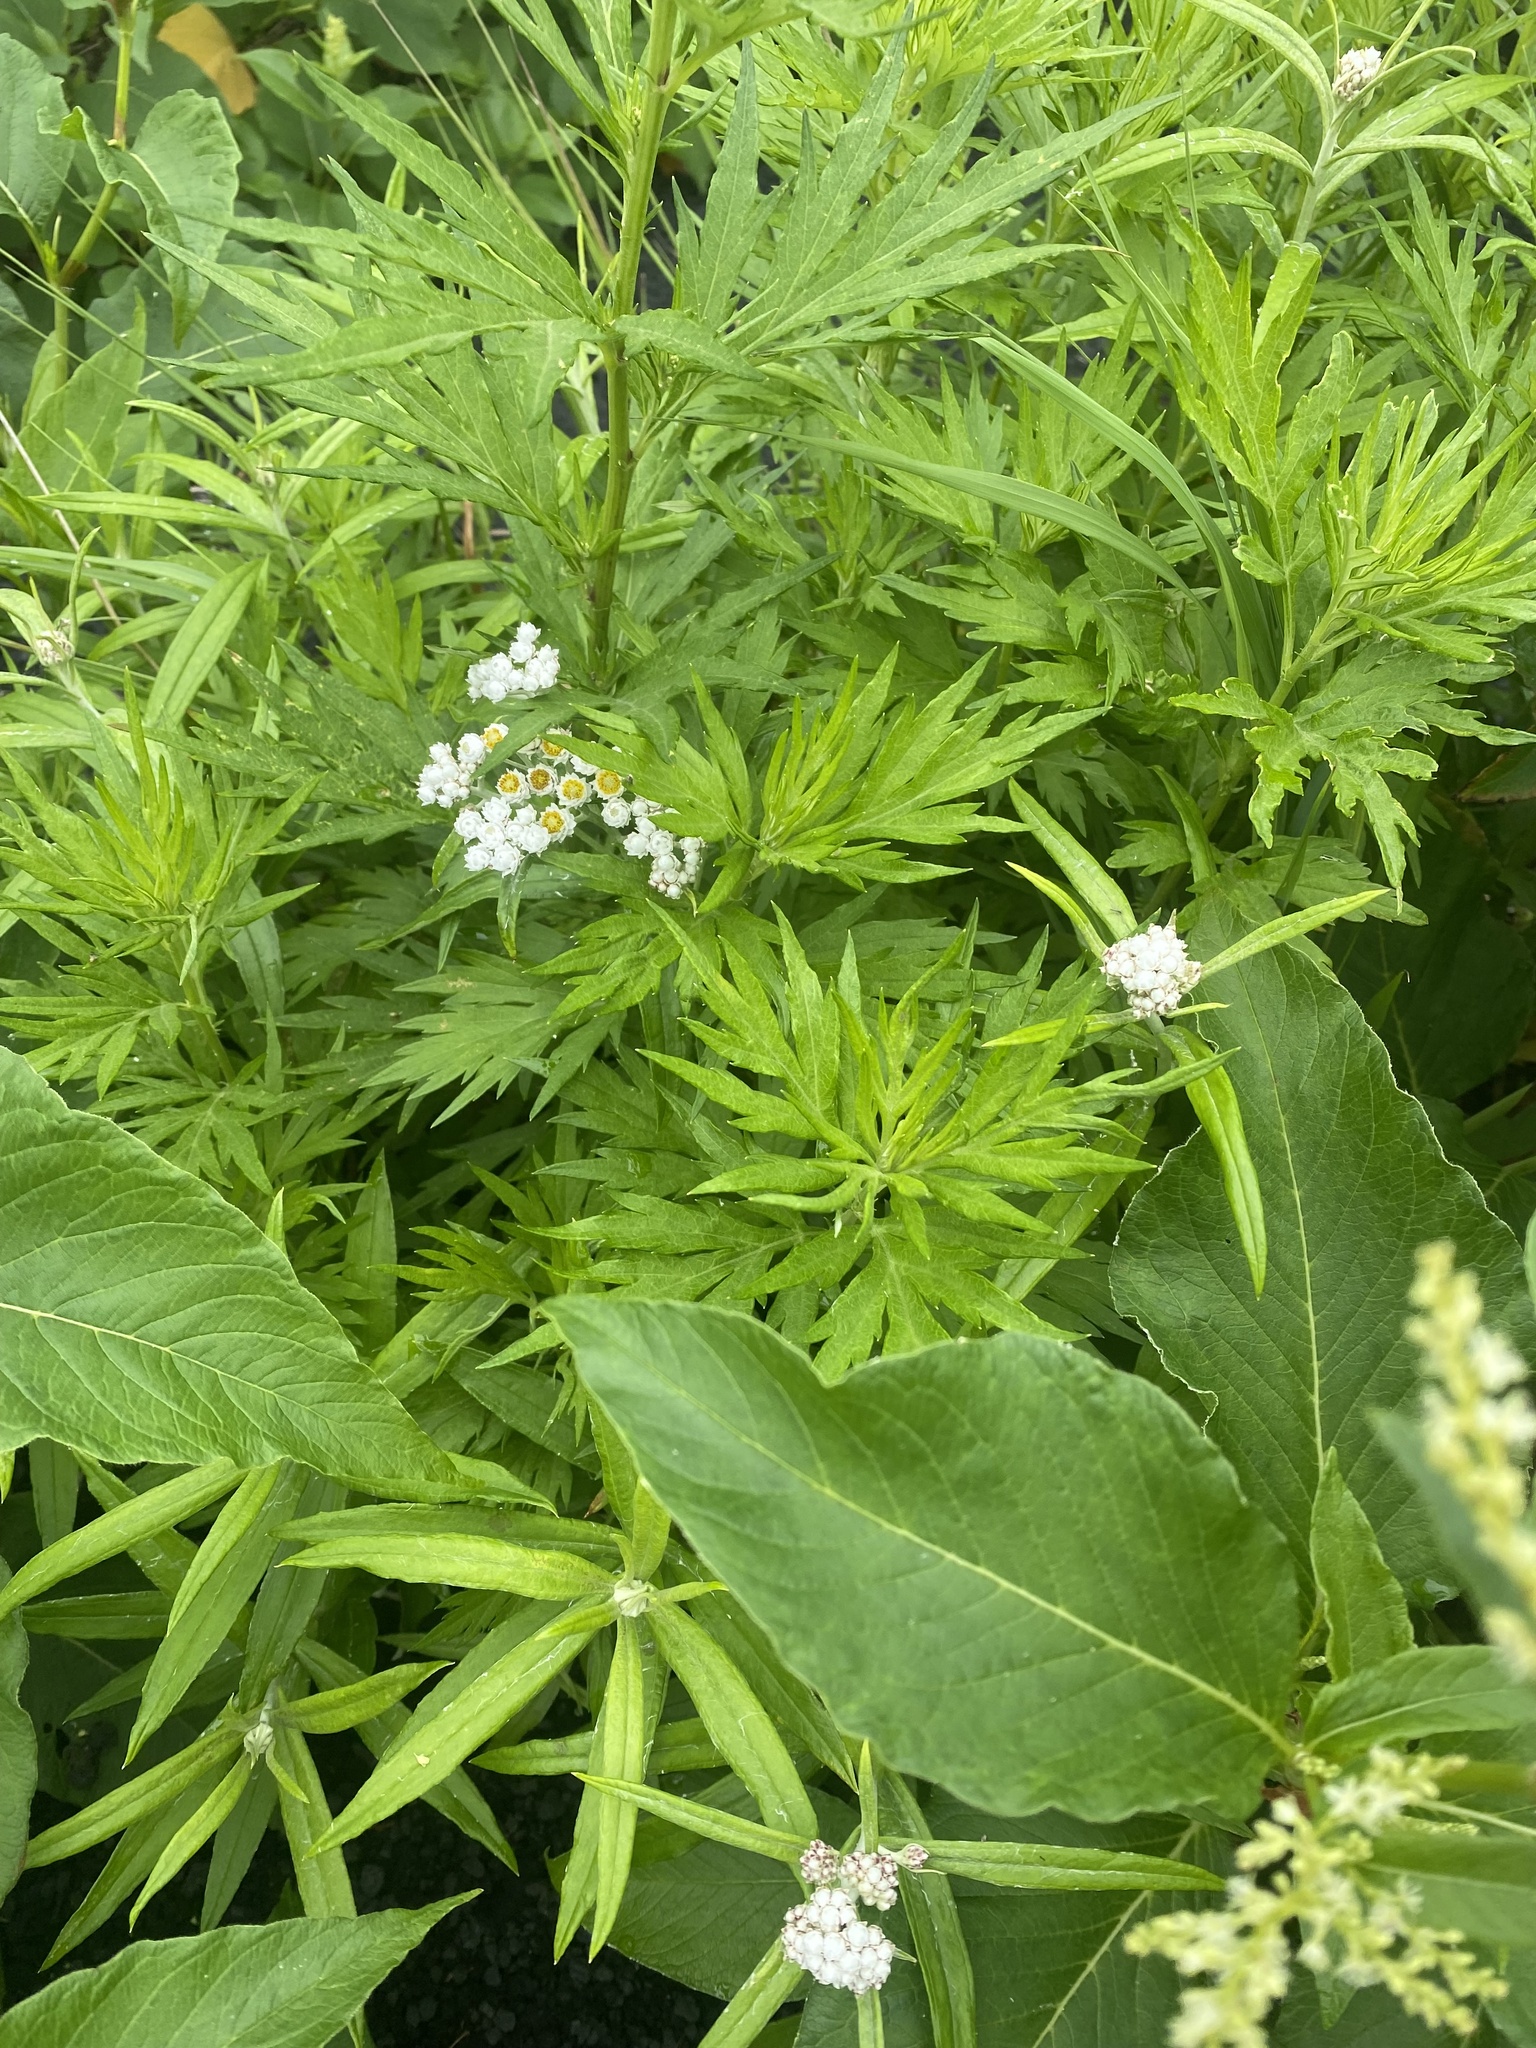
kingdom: Plantae
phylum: Tracheophyta
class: Magnoliopsida
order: Asterales
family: Asteraceae
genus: Anaphalis
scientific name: Anaphalis margaritacea
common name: Pearly everlasting
